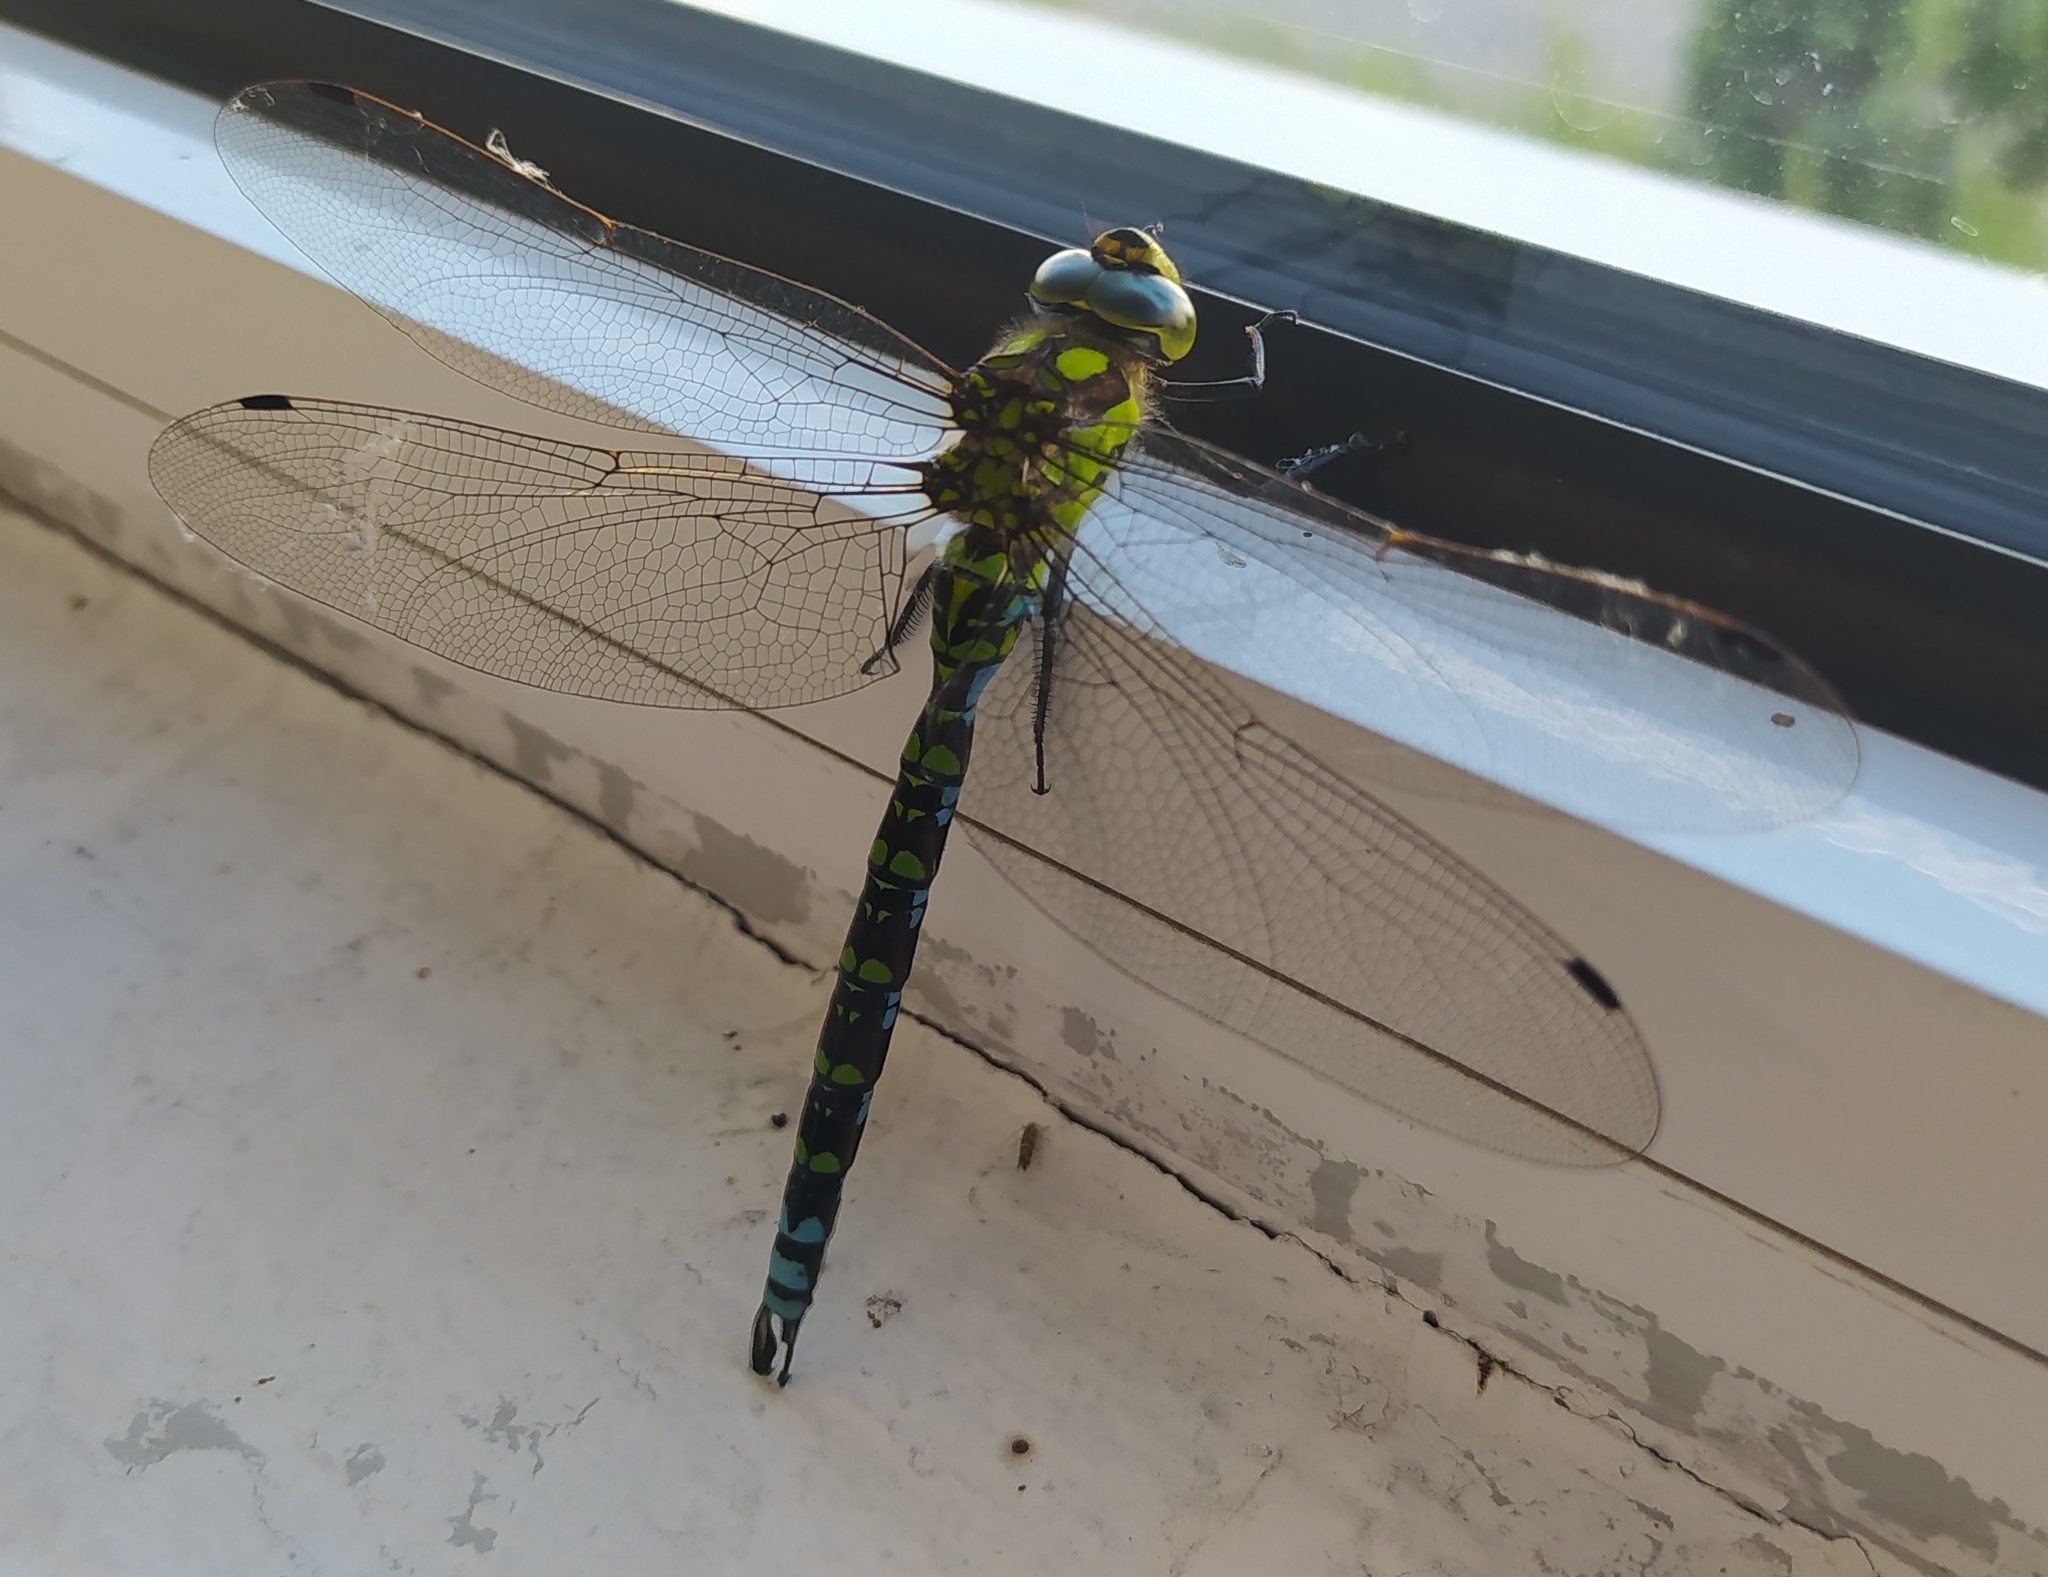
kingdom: Animalia
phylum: Arthropoda
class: Insecta
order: Odonata
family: Aeshnidae
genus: Aeshna
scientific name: Aeshna cyanea
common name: Southern hawker
